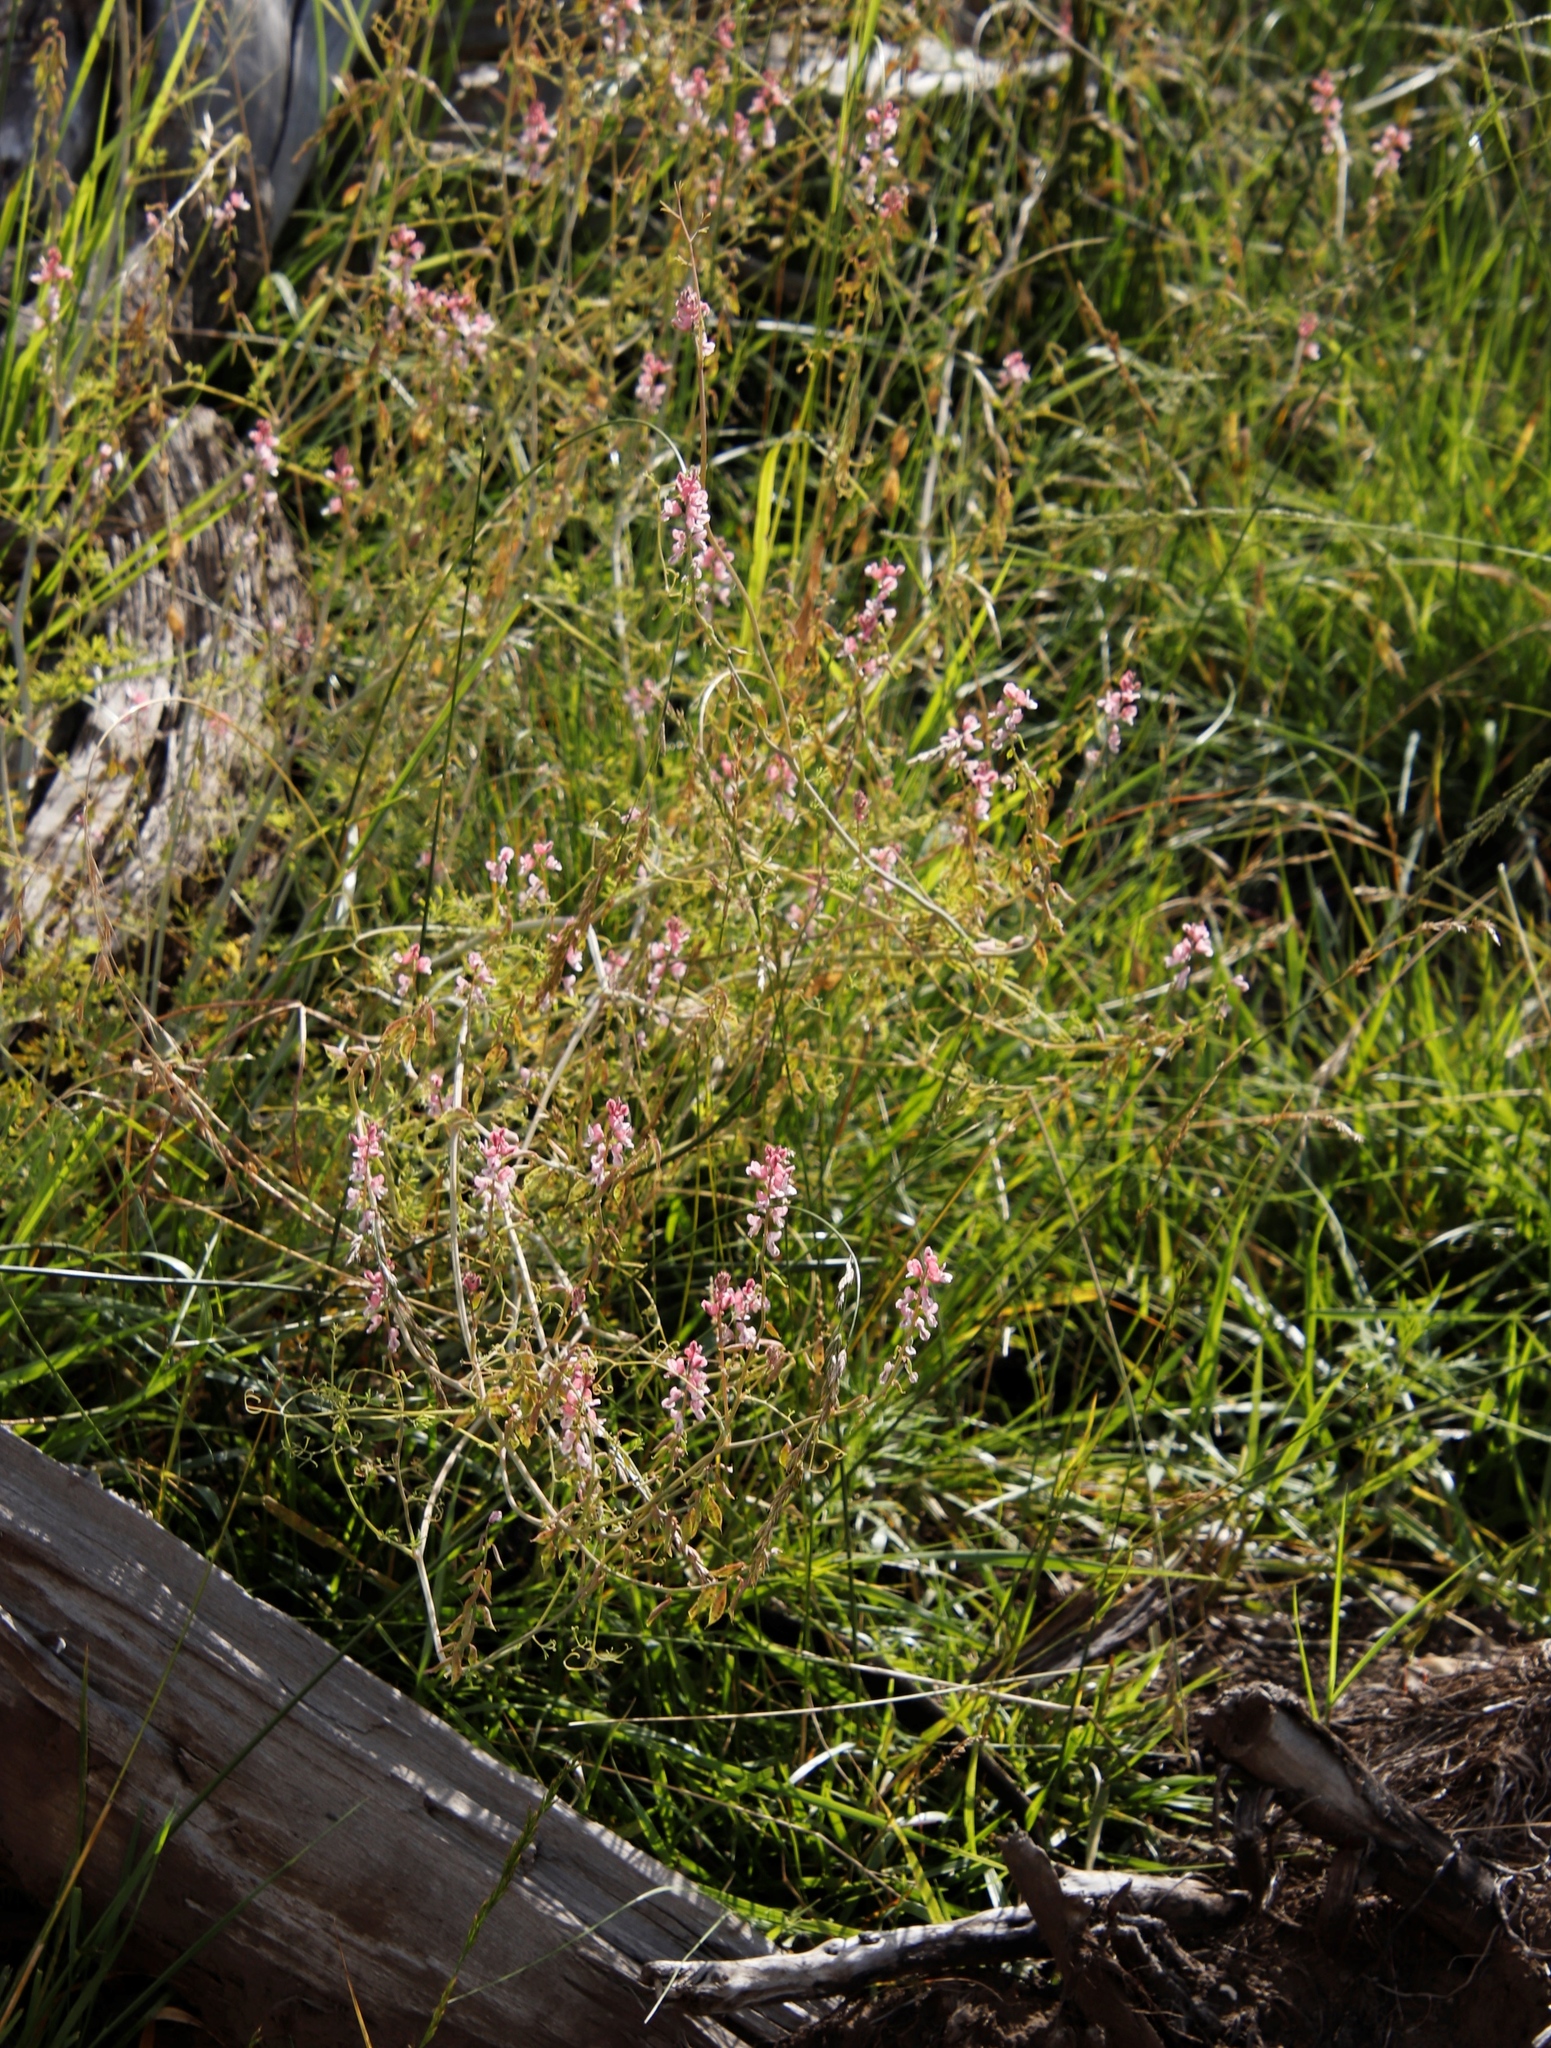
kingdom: Plantae
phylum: Tracheophyta
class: Magnoliopsida
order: Ranunculales
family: Papaveraceae
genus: Cysticapnos
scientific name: Cysticapnos pruinosa
